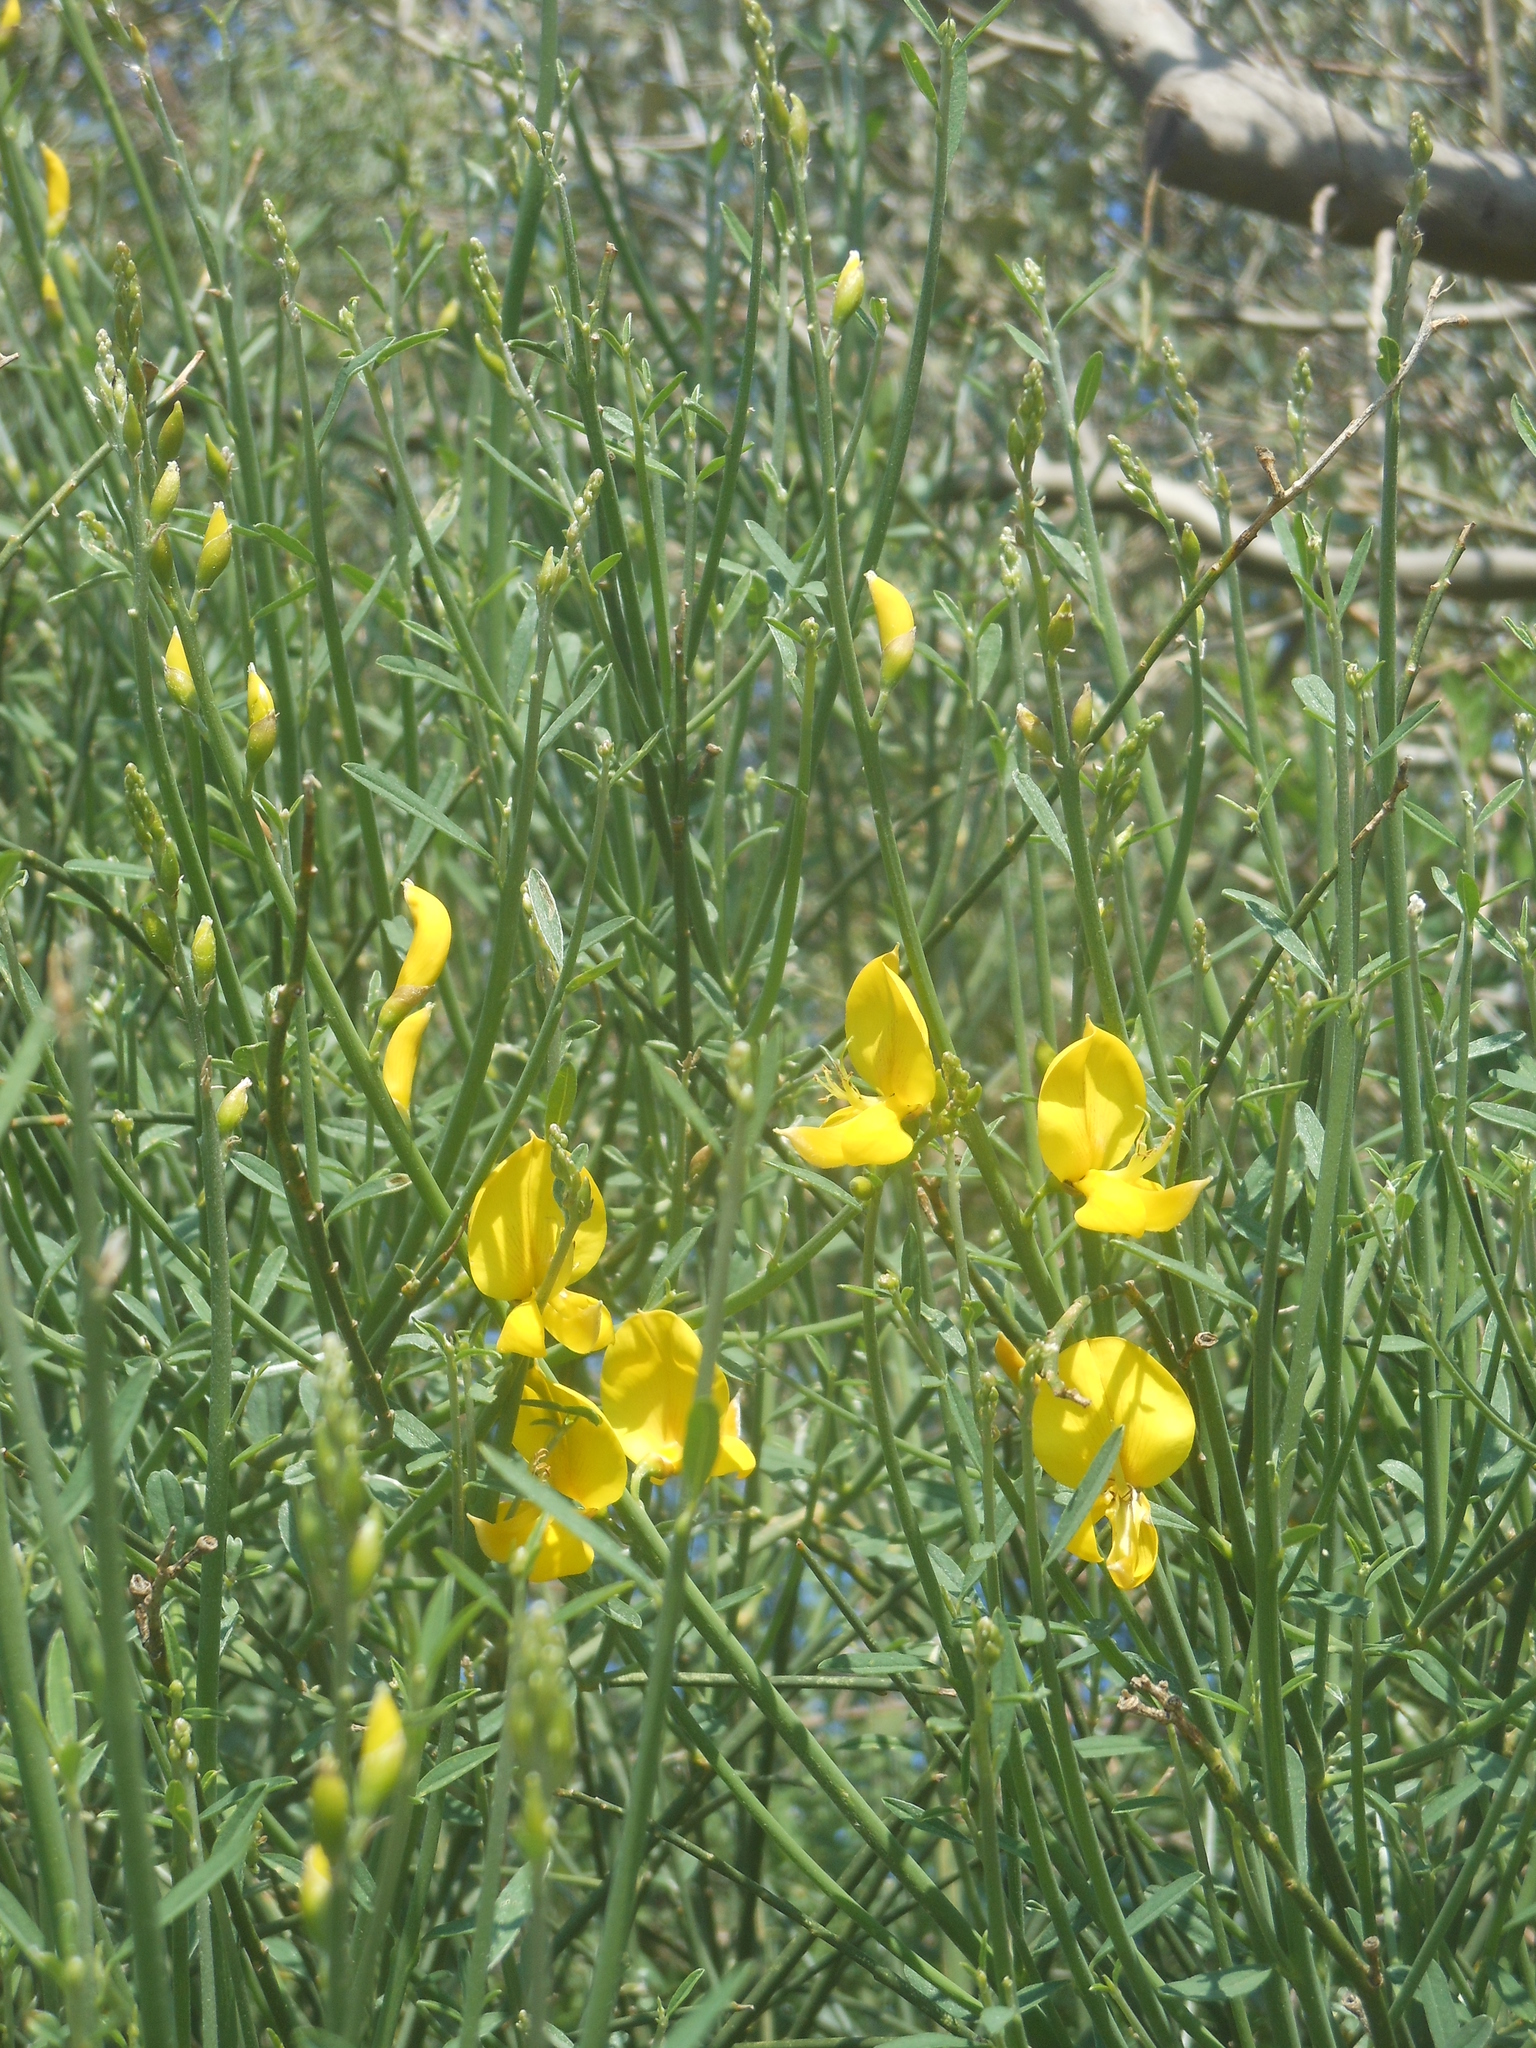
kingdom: Plantae
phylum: Tracheophyta
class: Magnoliopsida
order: Fabales
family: Fabaceae
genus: Spartium
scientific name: Spartium junceum
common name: Spanish broom
